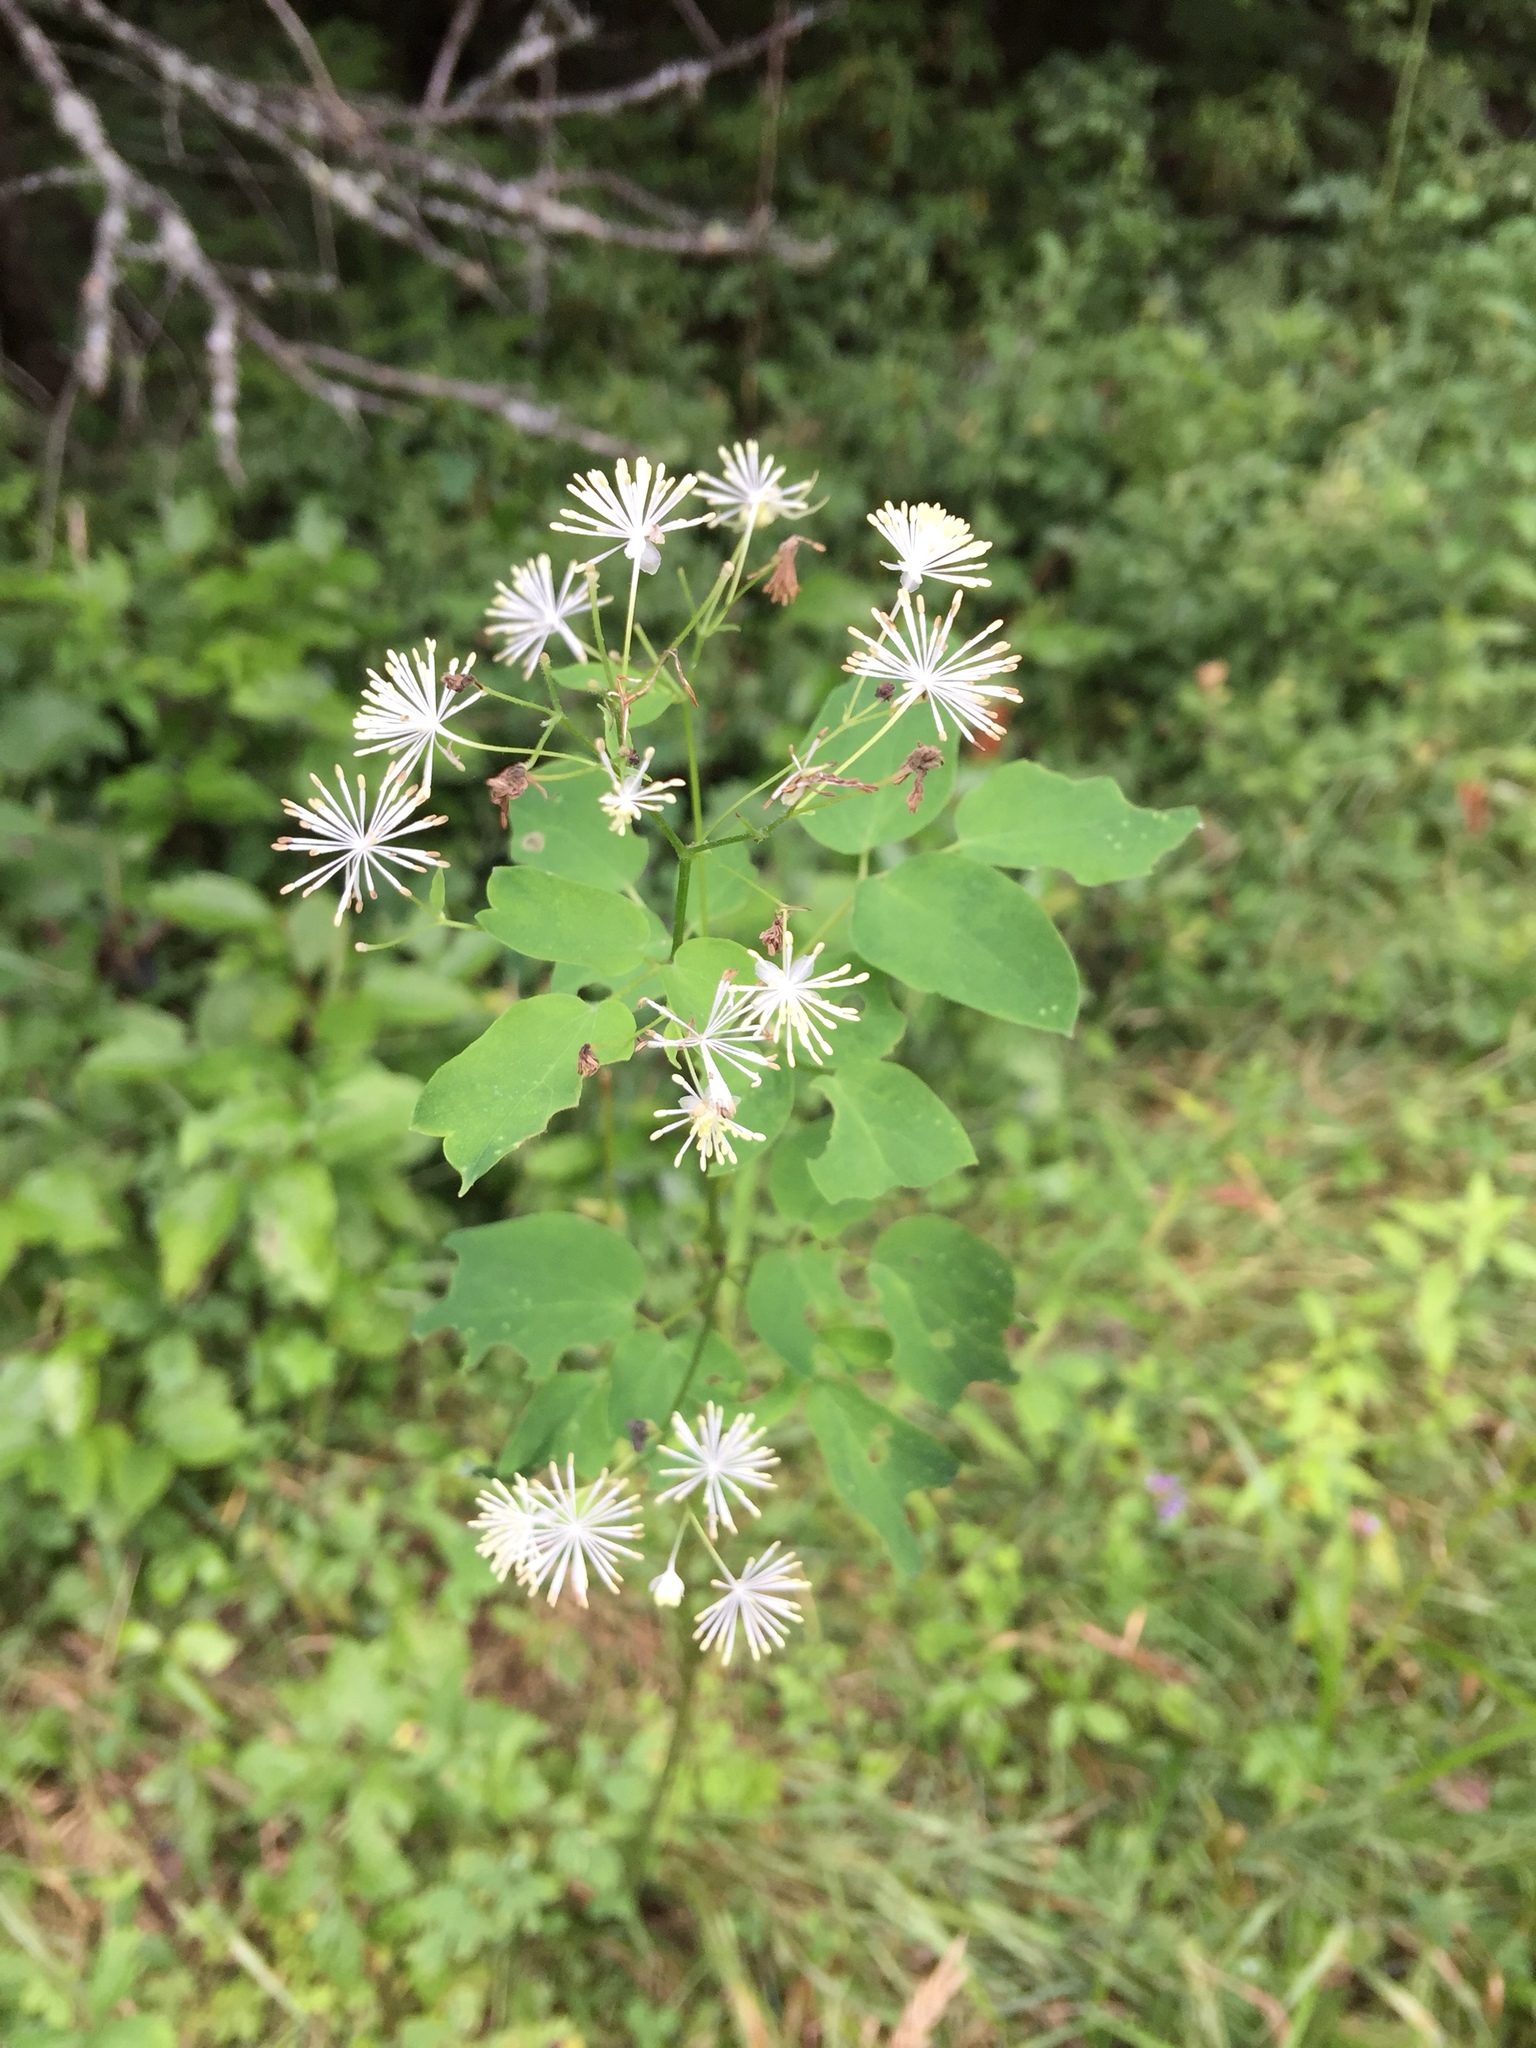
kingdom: Plantae
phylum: Tracheophyta
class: Magnoliopsida
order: Ranunculales
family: Ranunculaceae
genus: Thalictrum
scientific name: Thalictrum pubescens
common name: King-of-the-meadow
